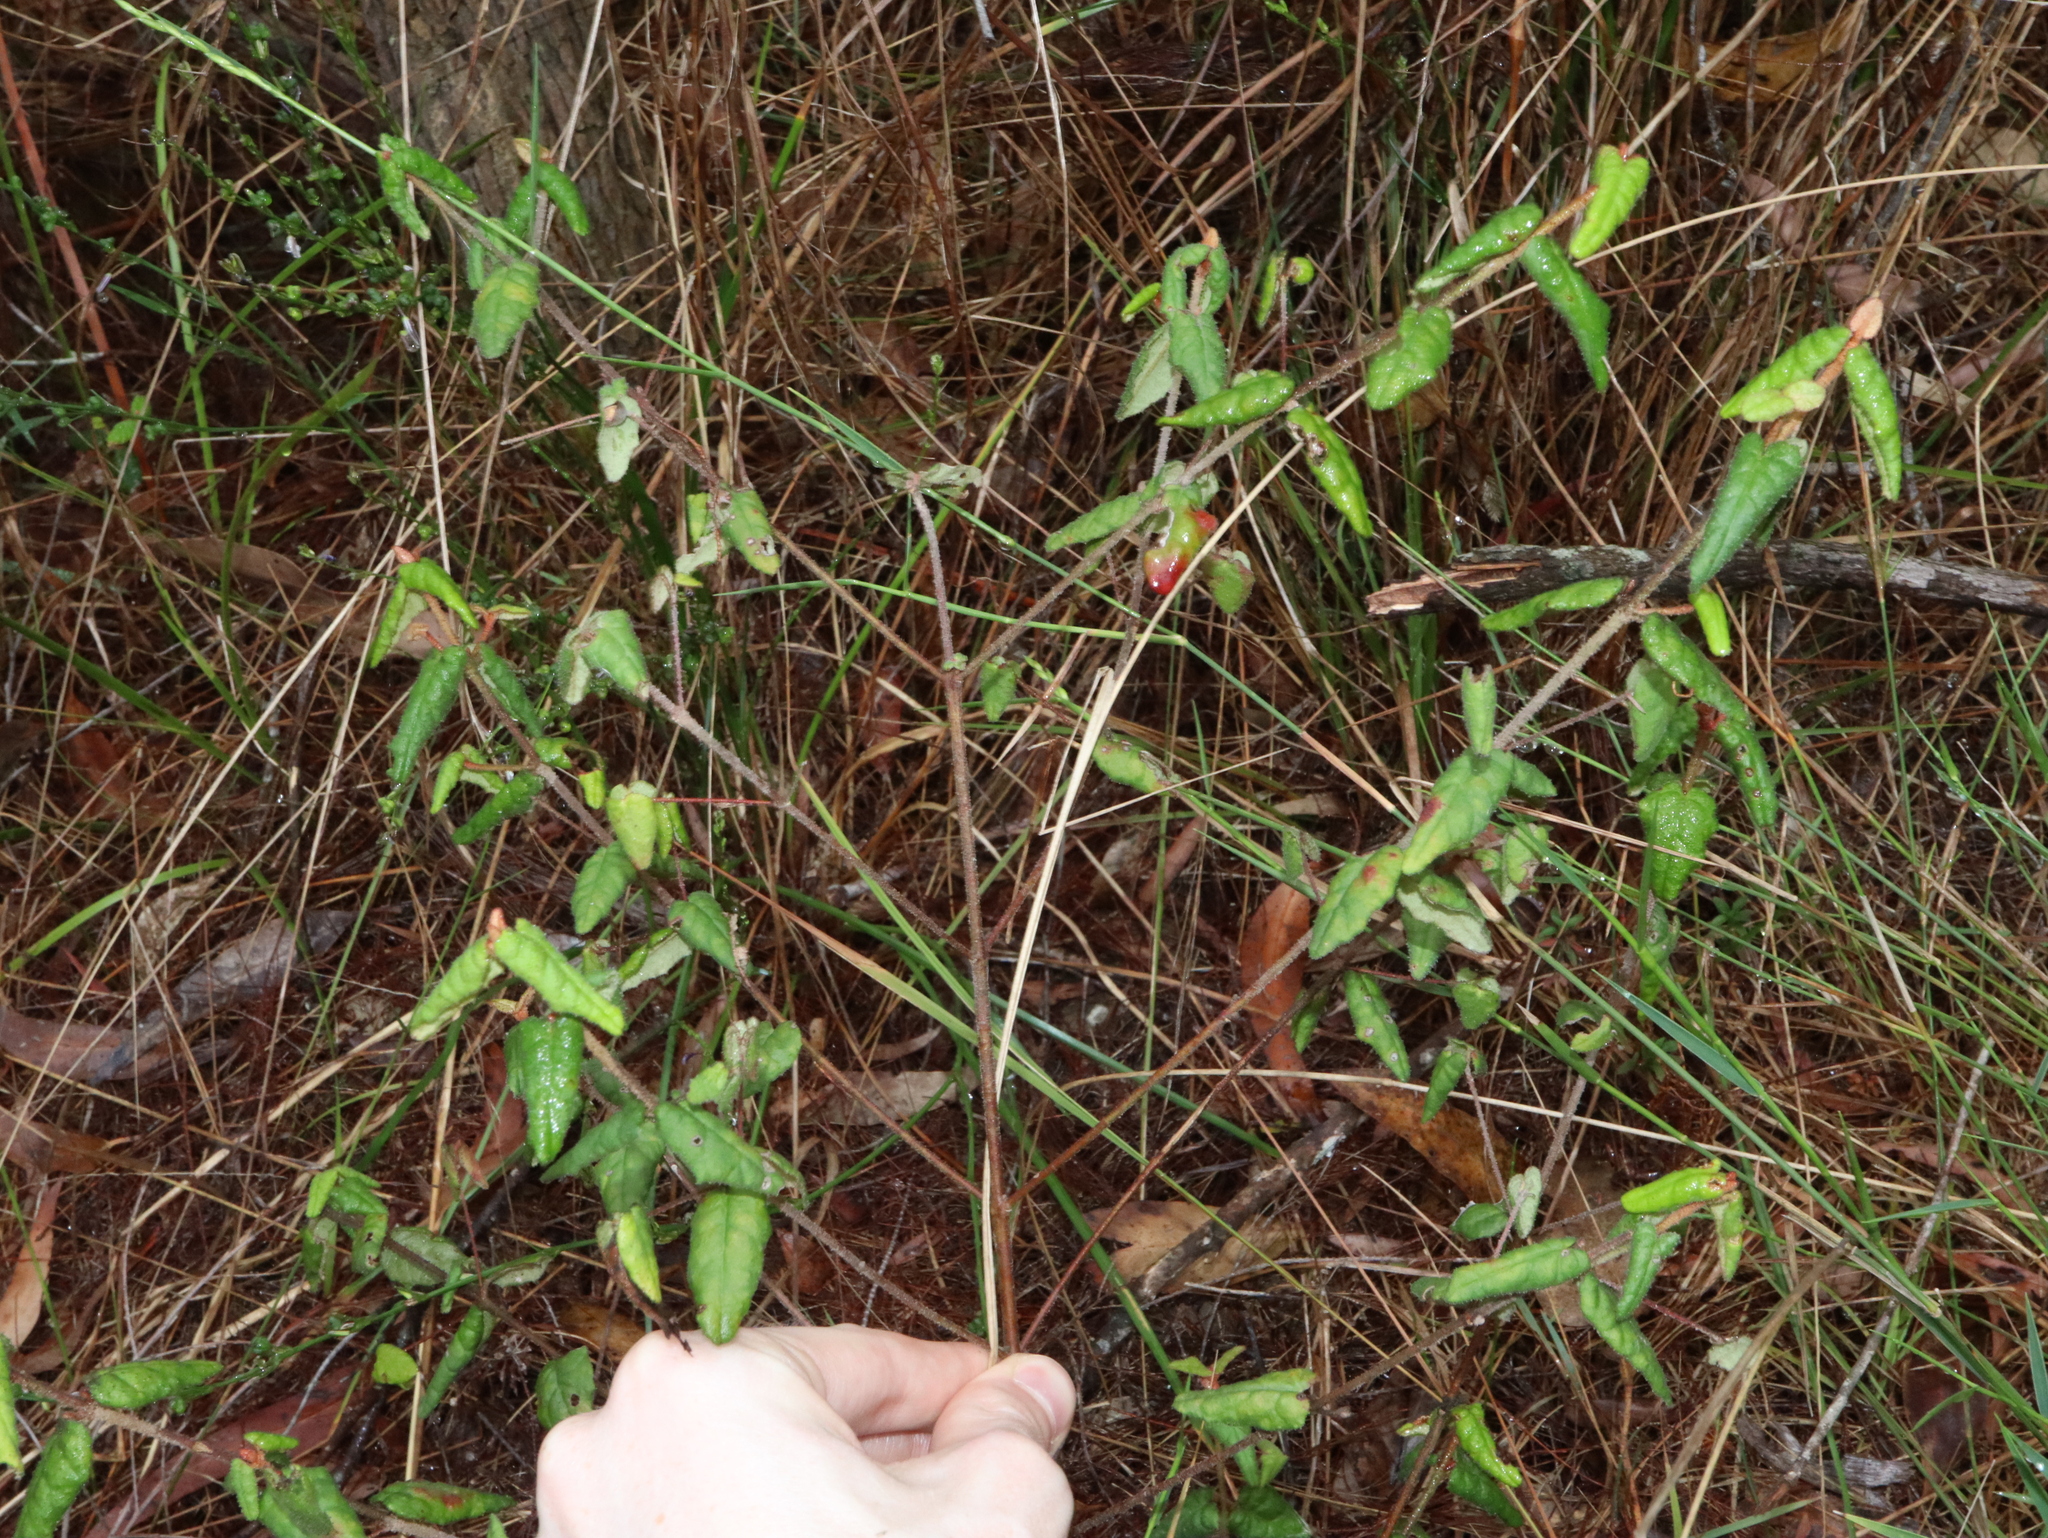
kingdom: Plantae
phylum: Tracheophyta
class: Magnoliopsida
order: Sapindales
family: Rutaceae
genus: Correa
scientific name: Correa reflexa
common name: Common correa
